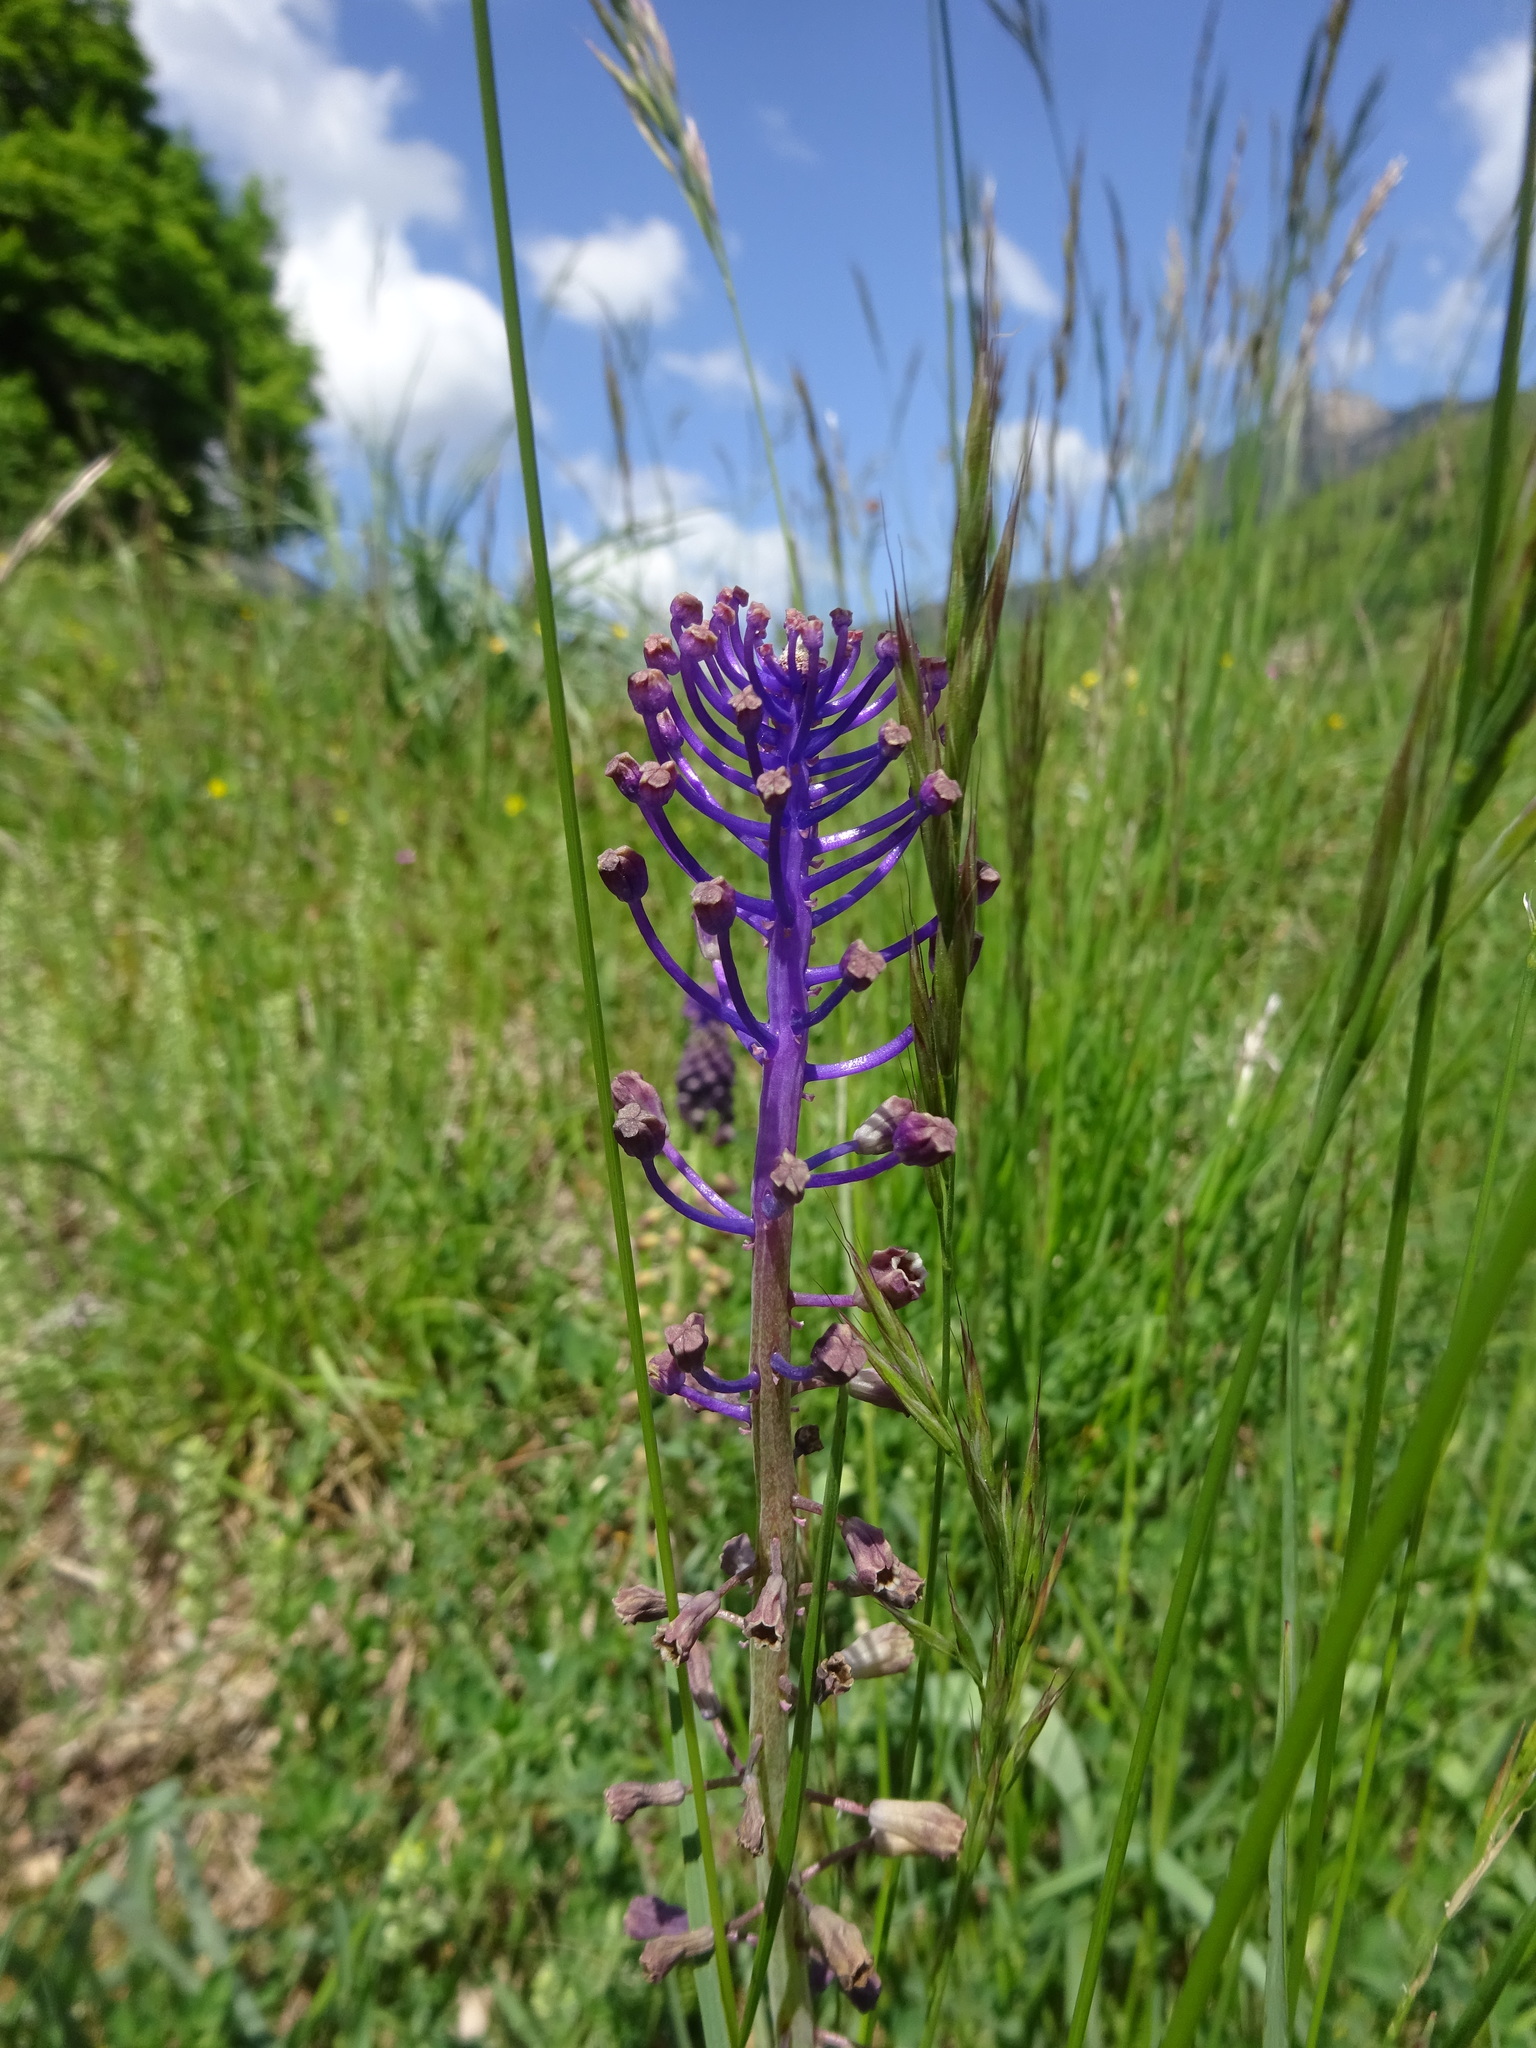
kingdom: Plantae
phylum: Tracheophyta
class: Liliopsida
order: Asparagales
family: Asparagaceae
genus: Muscari
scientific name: Muscari comosum
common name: Tassel hyacinth
